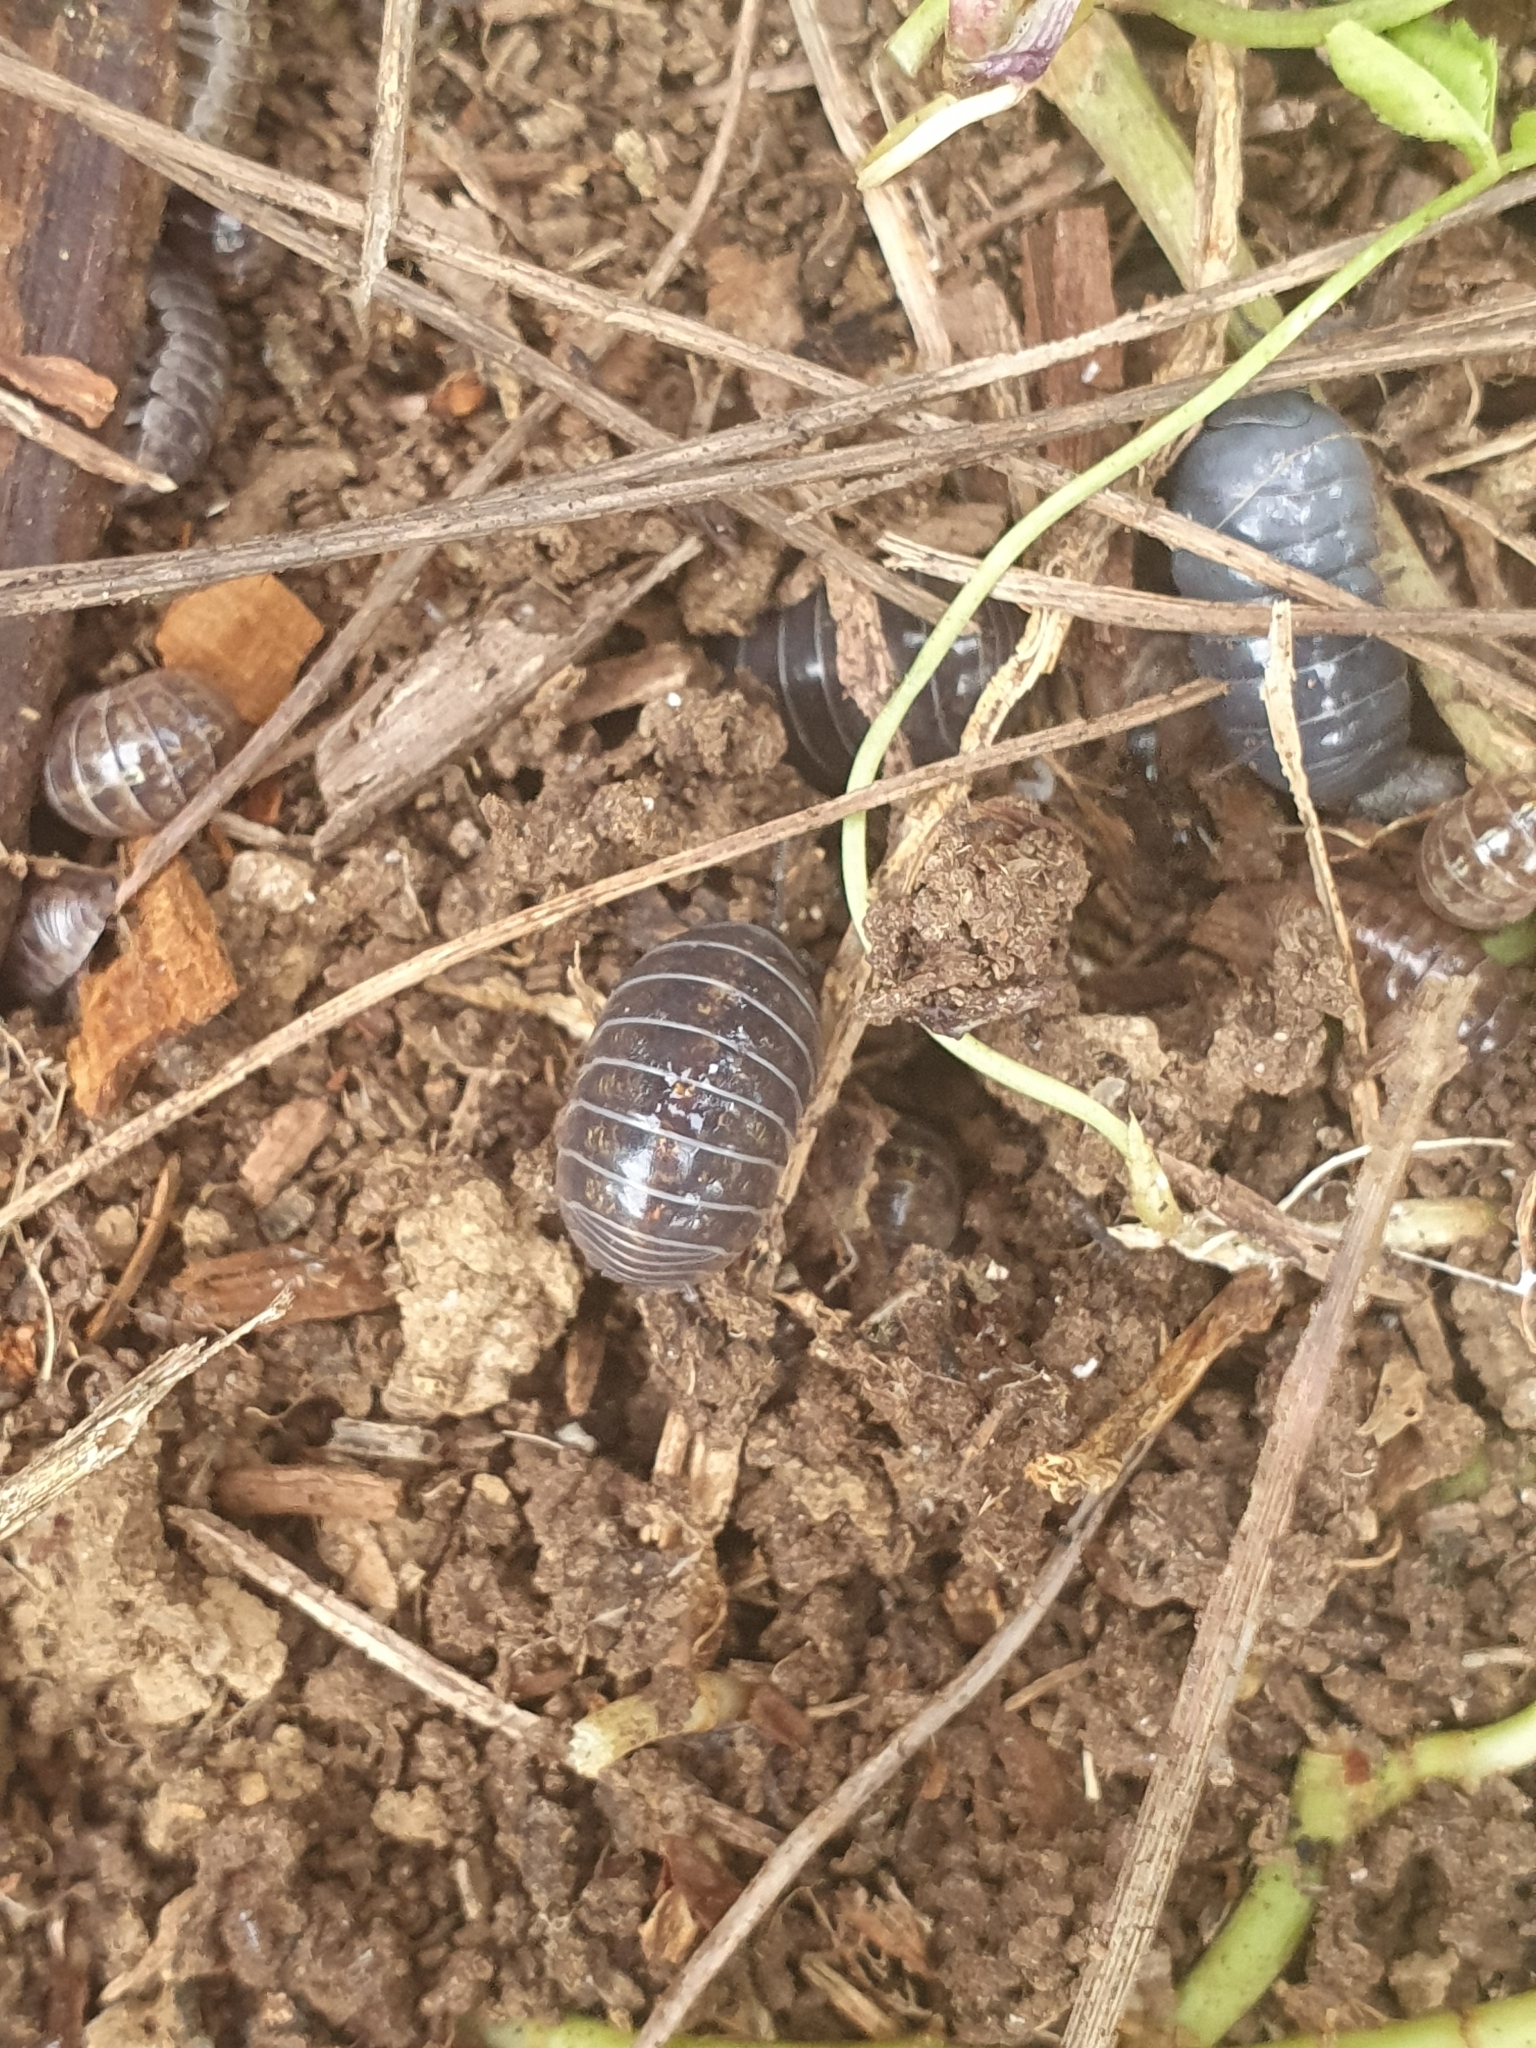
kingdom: Animalia
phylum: Arthropoda
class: Malacostraca
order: Isopoda
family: Armadillidiidae
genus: Armadillidium
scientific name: Armadillidium vulgare
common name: Common pill woodlouse
